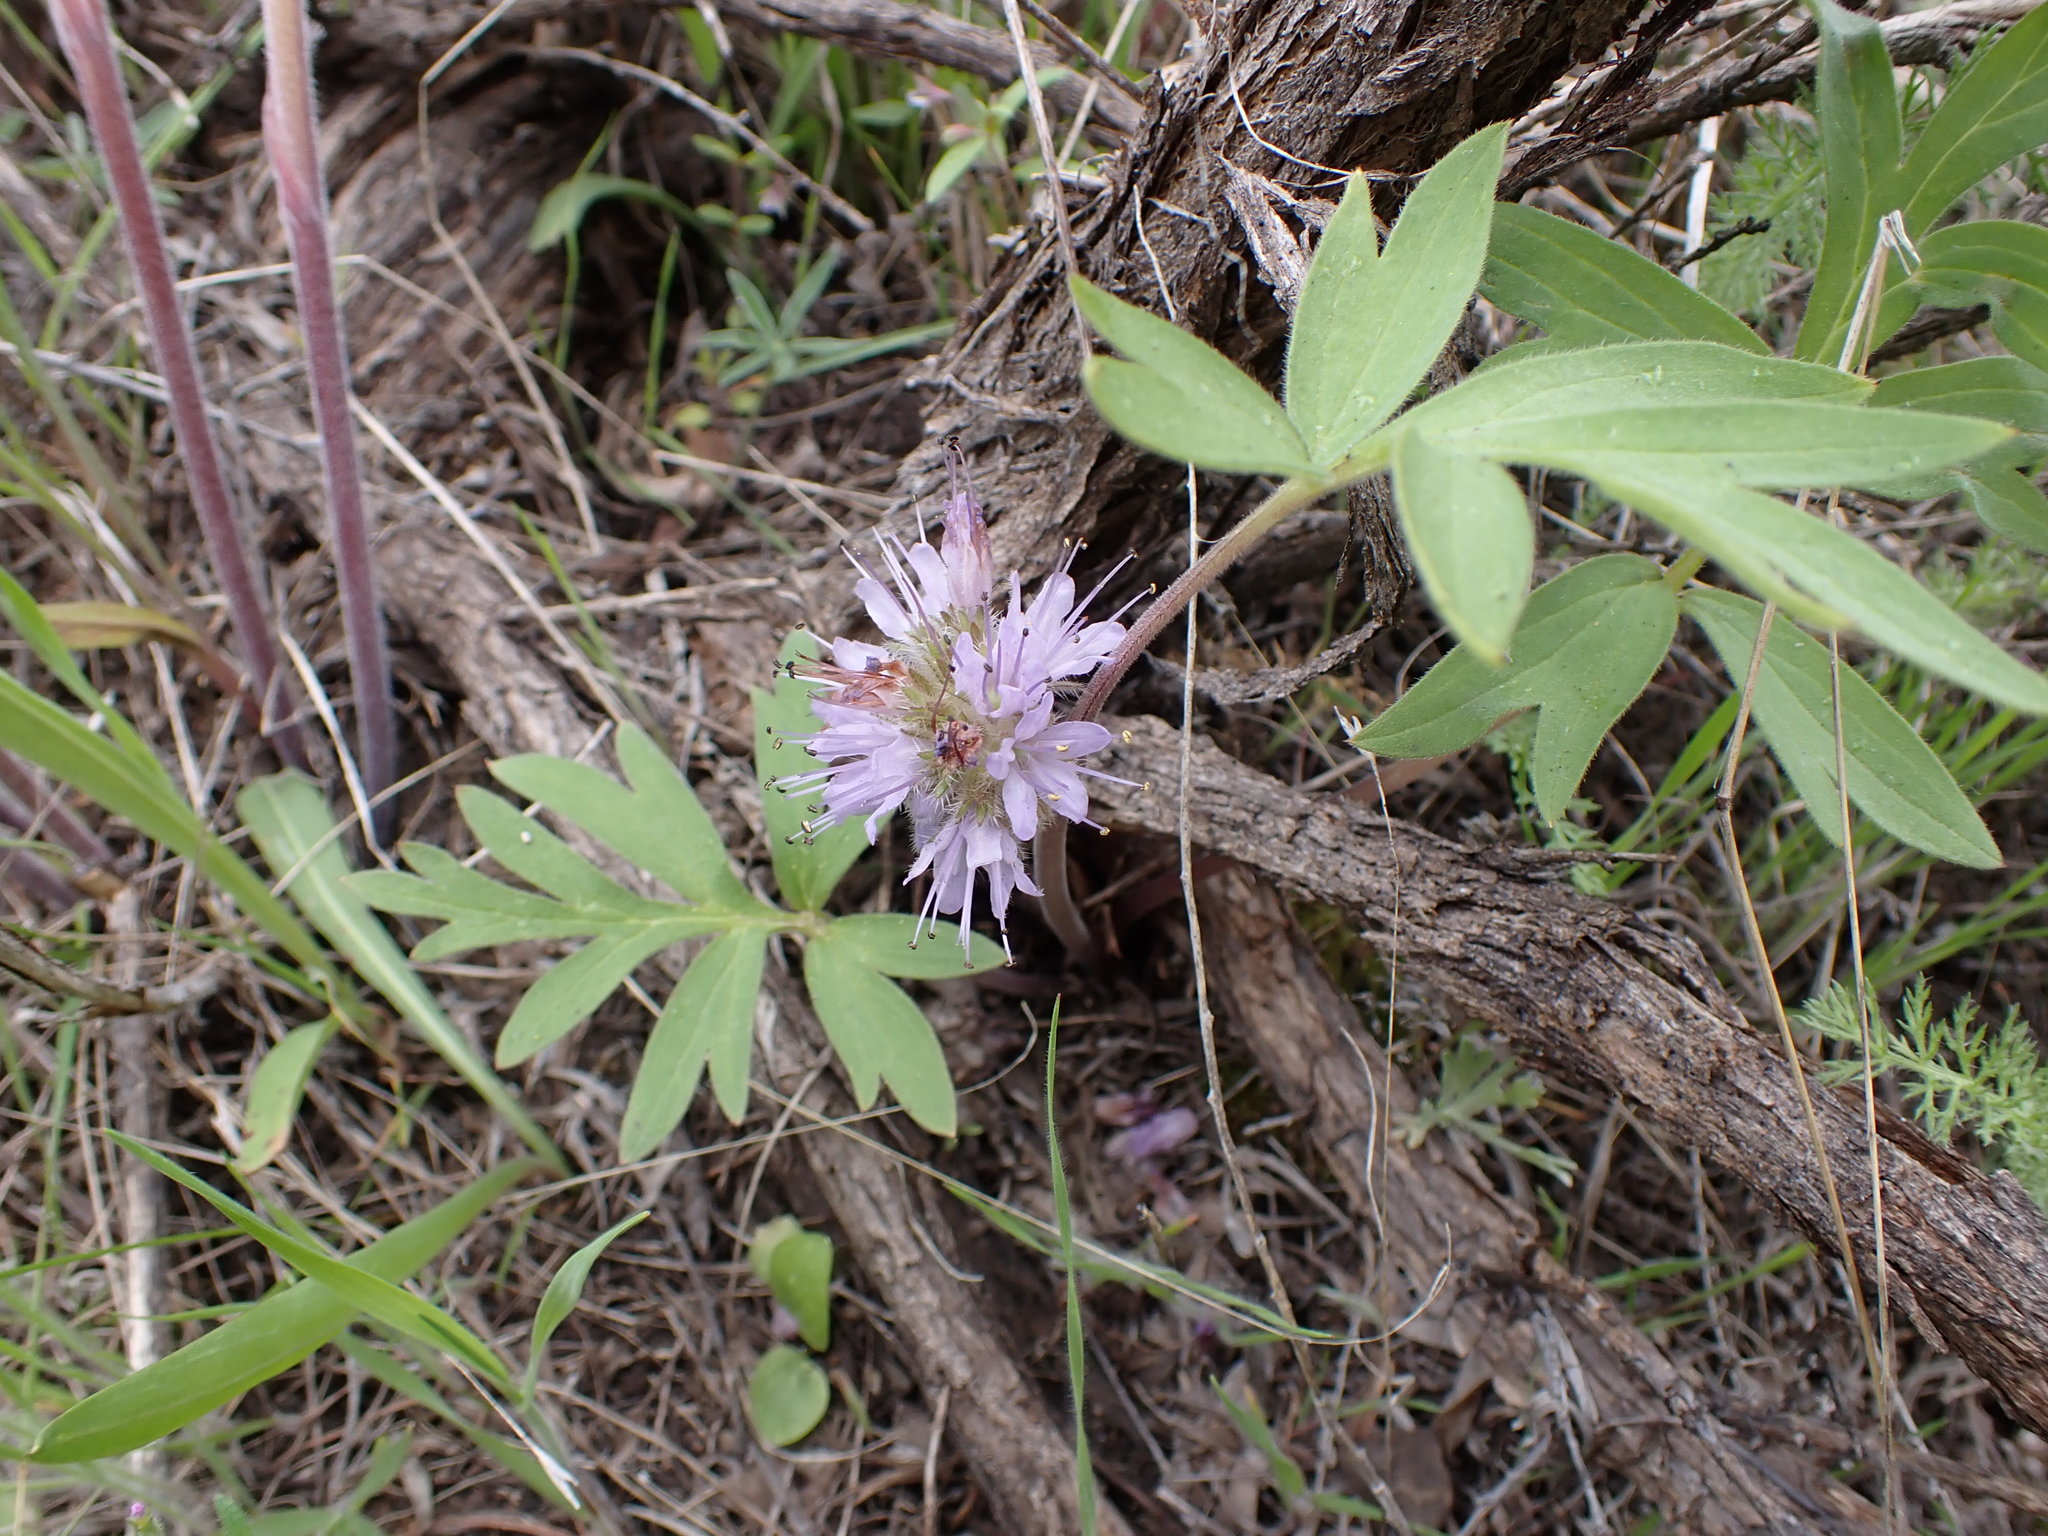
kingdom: Plantae
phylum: Tracheophyta
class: Magnoliopsida
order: Boraginales
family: Hydrophyllaceae
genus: Hydrophyllum
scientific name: Hydrophyllum capitatum
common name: Woollen-breeches
